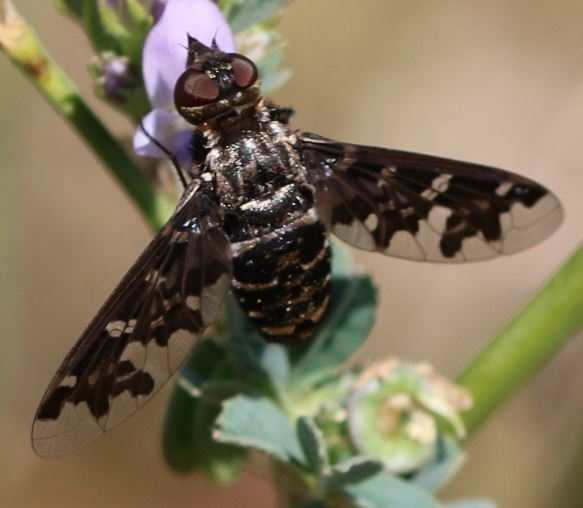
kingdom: Animalia
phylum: Arthropoda
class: Insecta
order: Diptera
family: Bombyliidae
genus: Exoprosopa
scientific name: Exoprosopa jacchus
